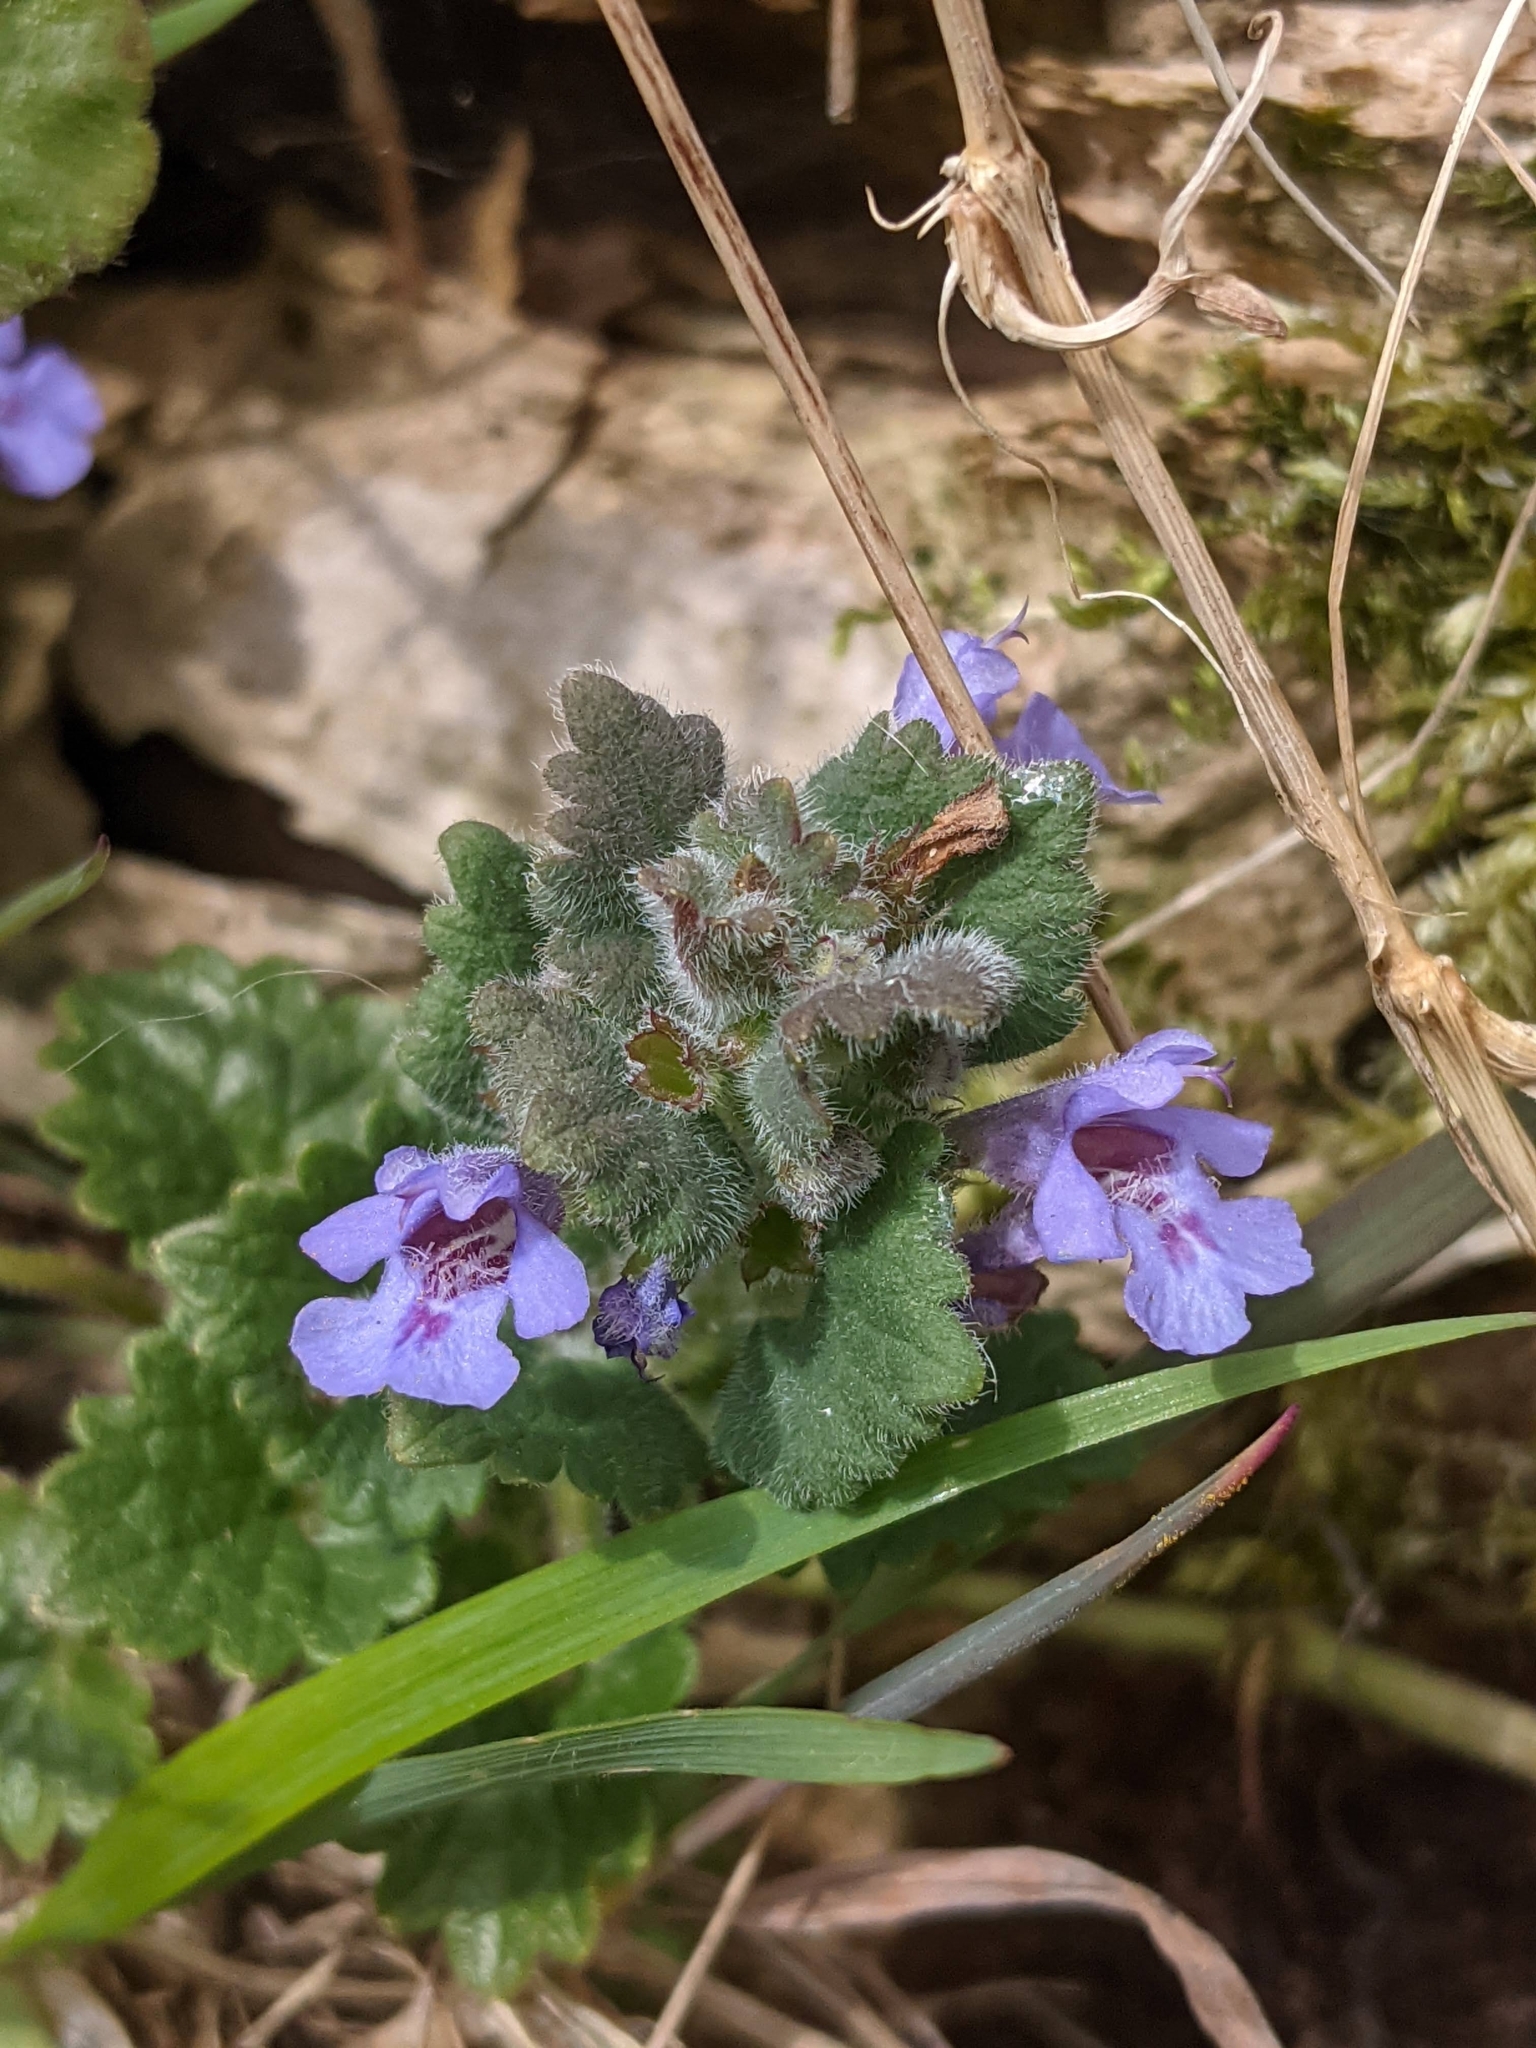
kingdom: Plantae
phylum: Tracheophyta
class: Magnoliopsida
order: Lamiales
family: Lamiaceae
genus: Glechoma
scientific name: Glechoma hederacea
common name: Ground ivy
